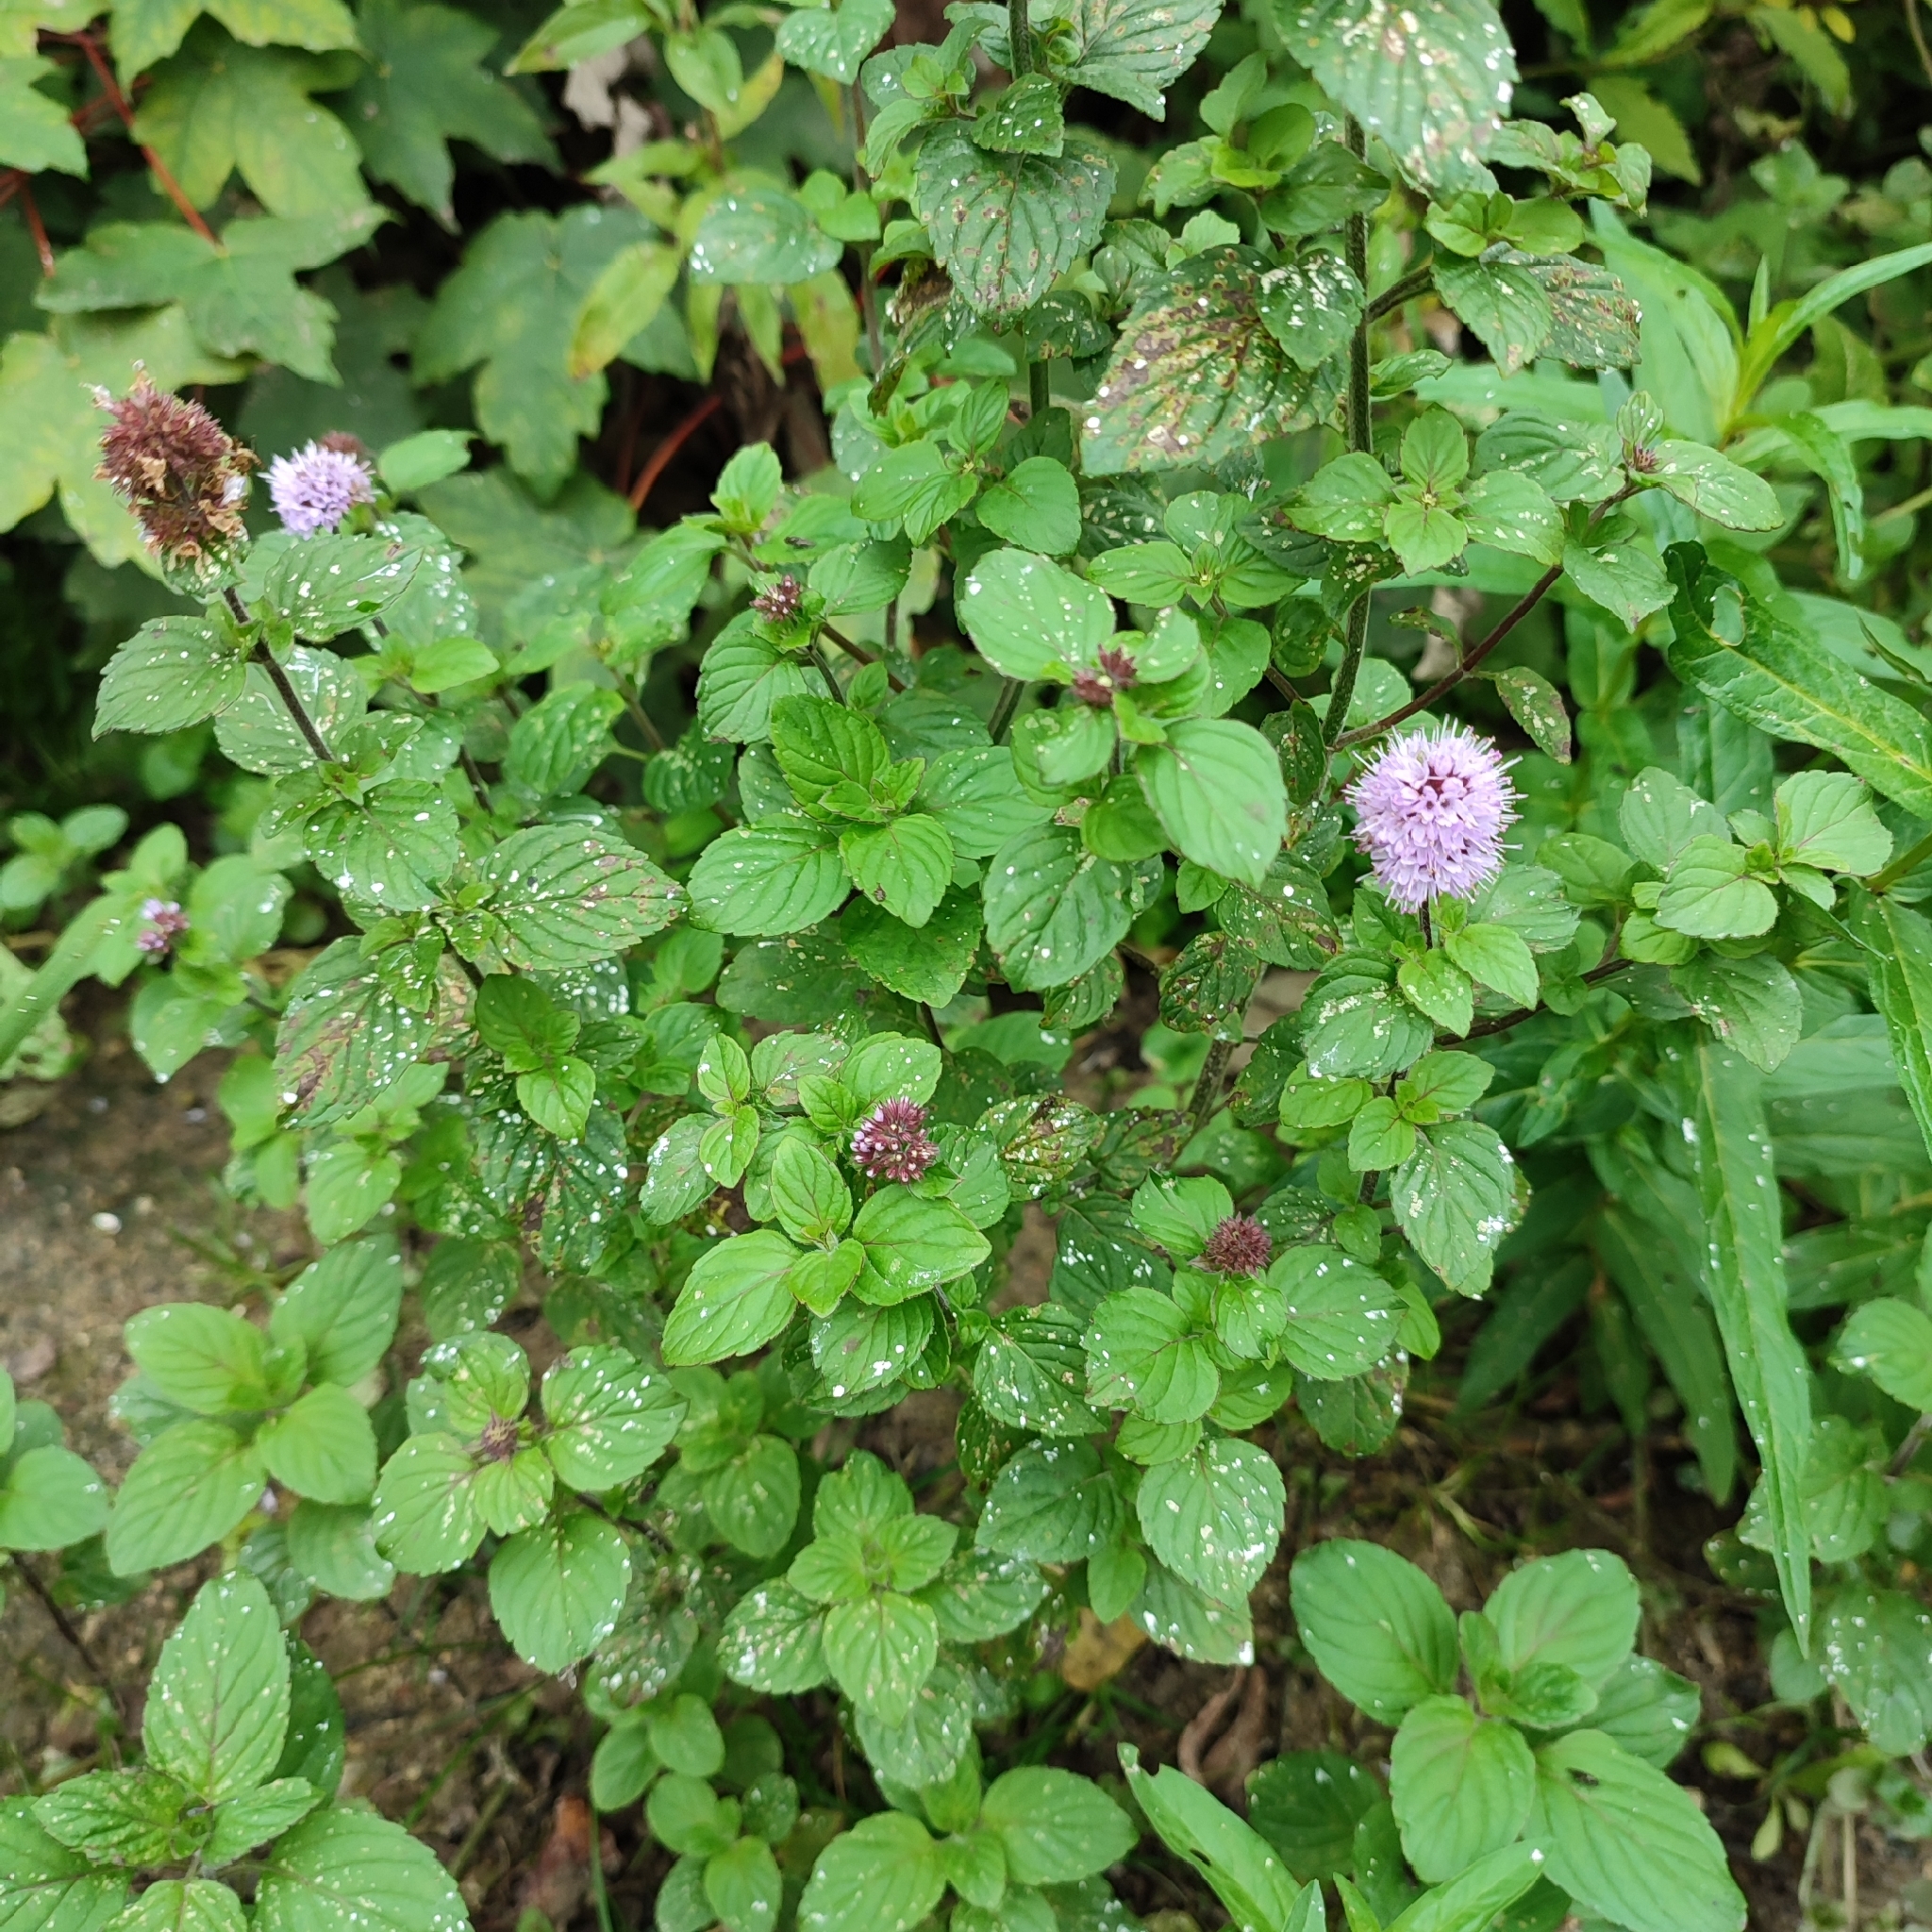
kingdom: Plantae
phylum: Tracheophyta
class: Magnoliopsida
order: Lamiales
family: Lamiaceae
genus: Mentha
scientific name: Mentha aquatica
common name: Water mint
